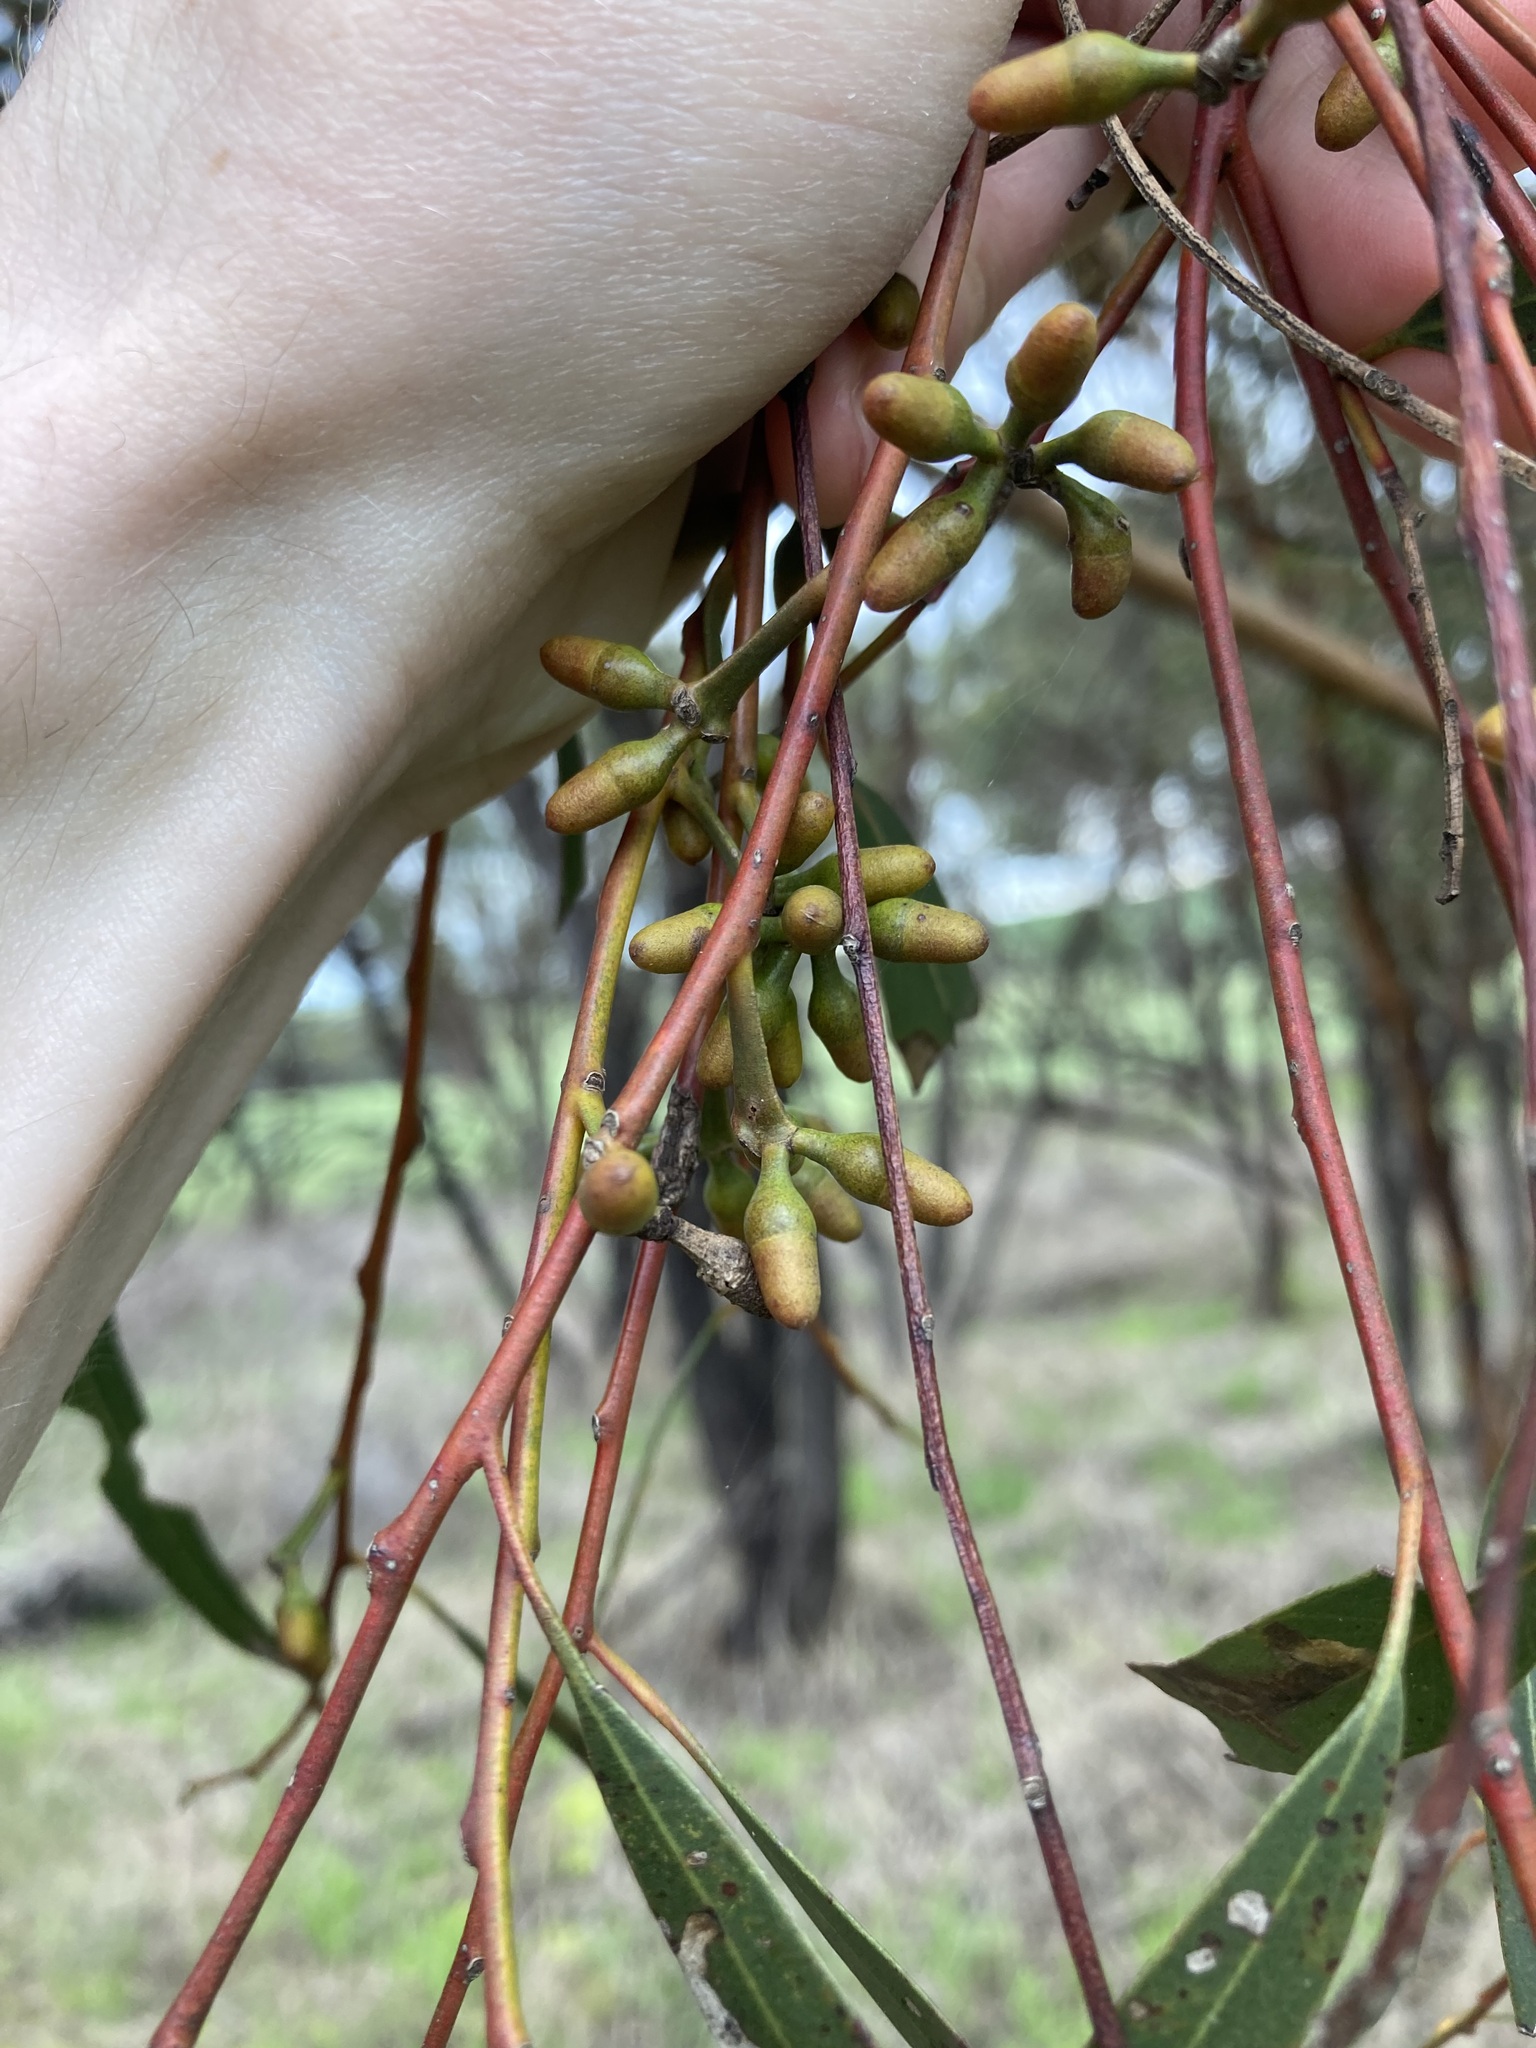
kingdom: Plantae
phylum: Tracheophyta
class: Magnoliopsida
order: Myrtales
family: Myrtaceae
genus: Eucalyptus
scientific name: Eucalyptus salubris
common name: Gimlet gum
